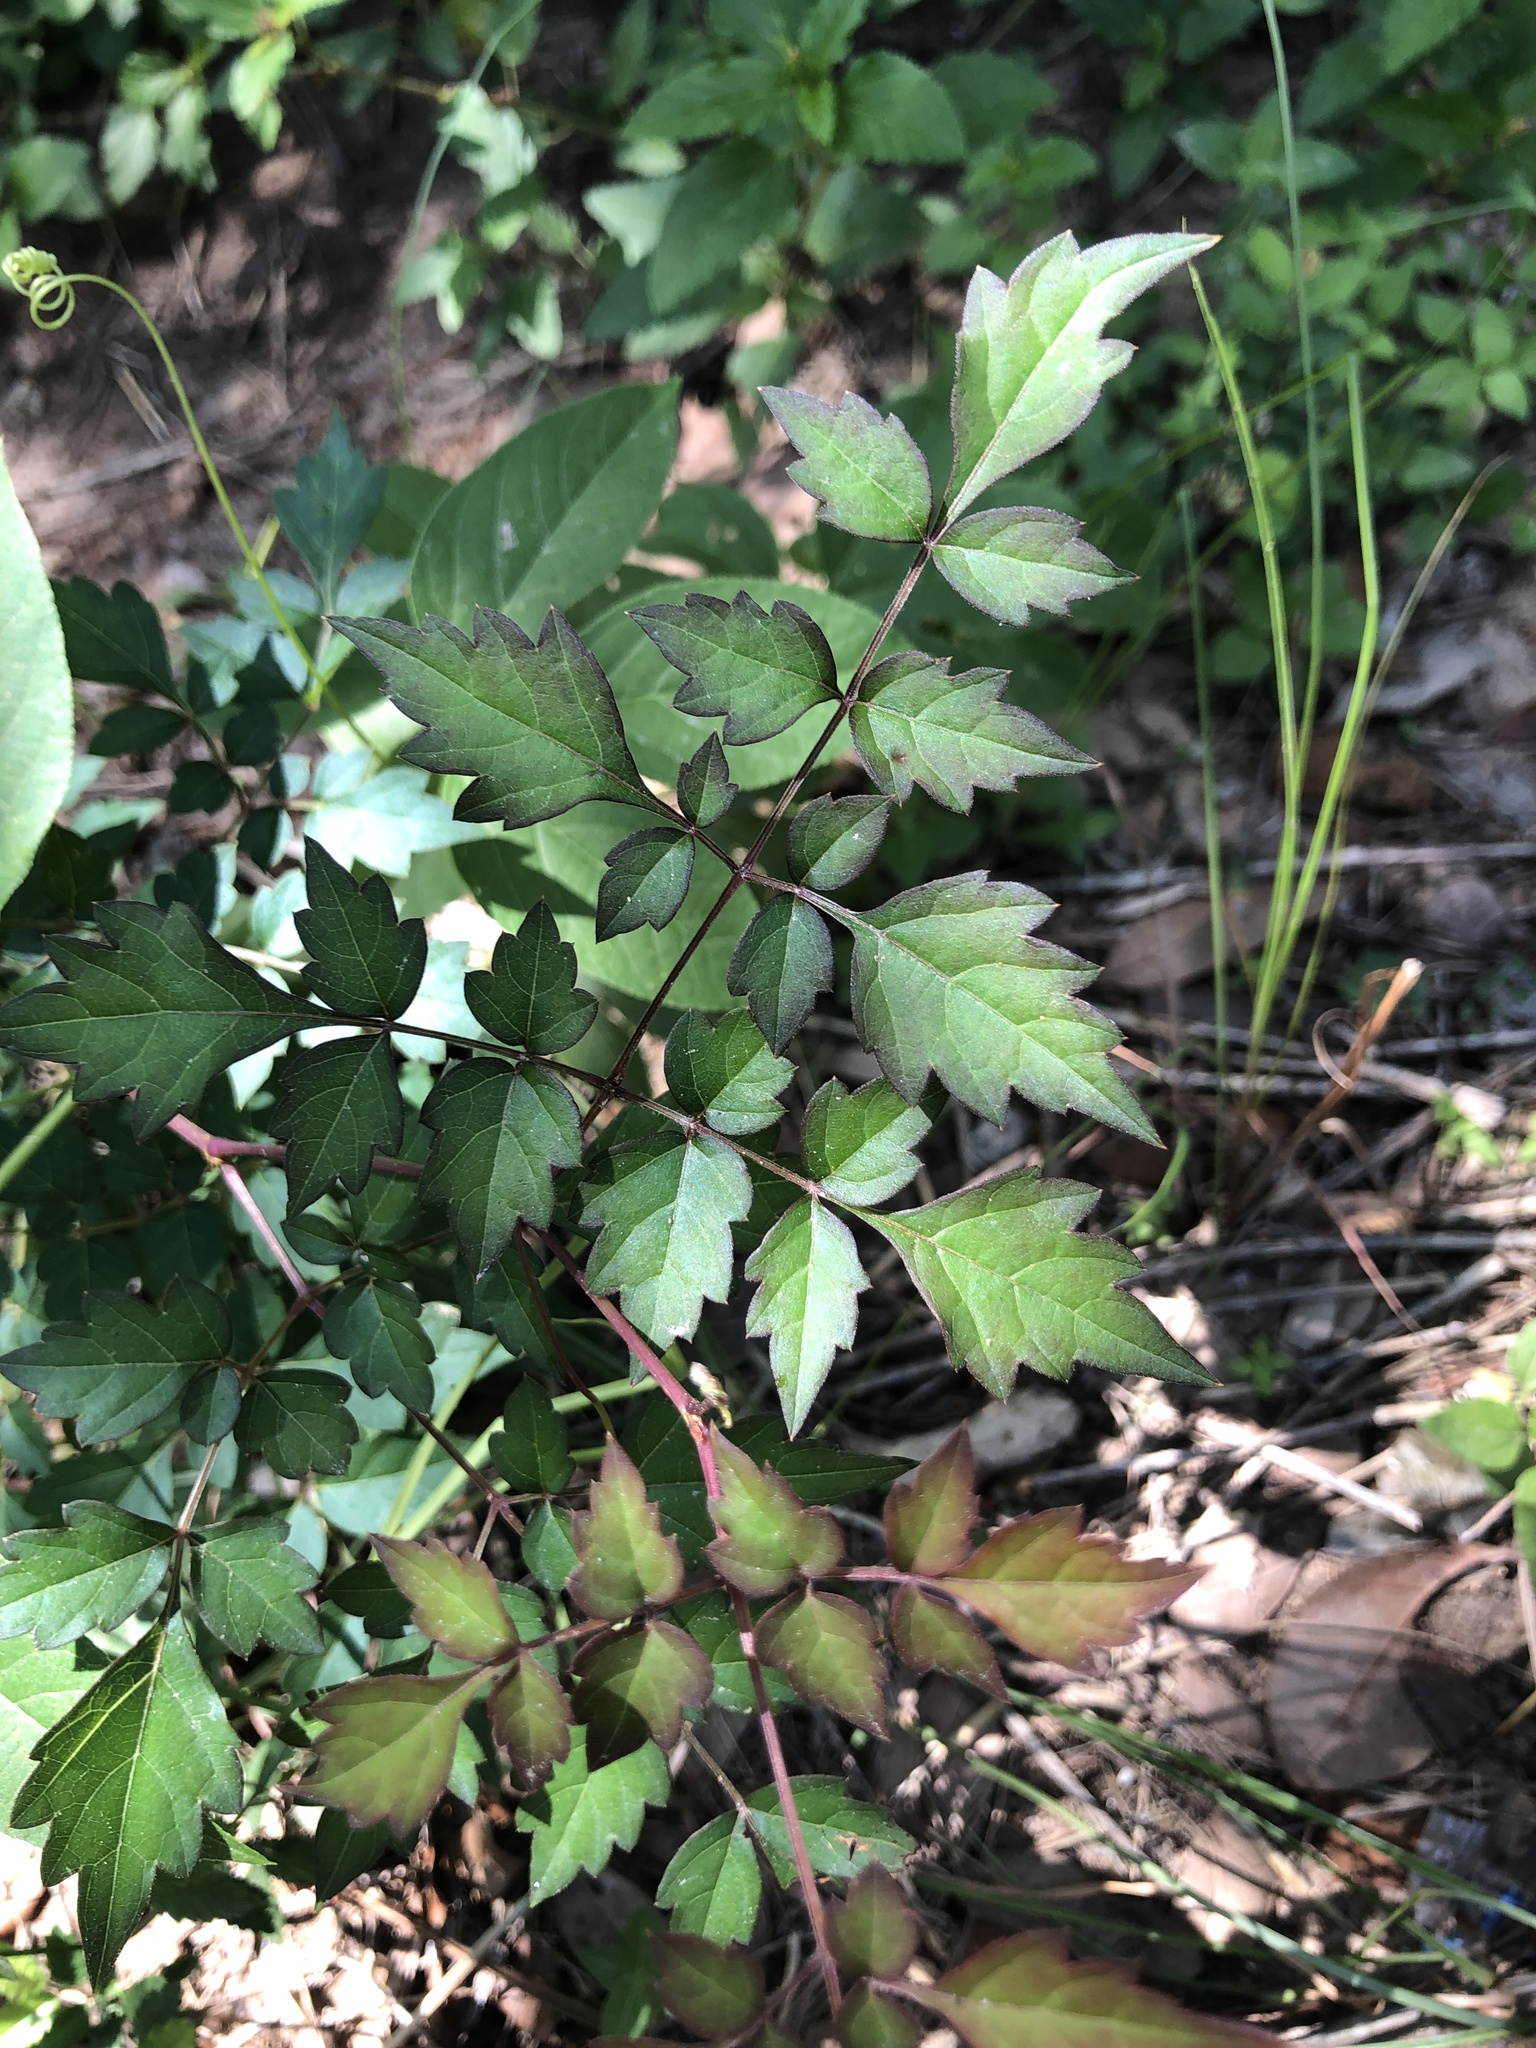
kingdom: Plantae
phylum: Tracheophyta
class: Magnoliopsida
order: Vitales
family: Vitaceae
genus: Nekemias
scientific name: Nekemias arborea
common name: Peppervine
